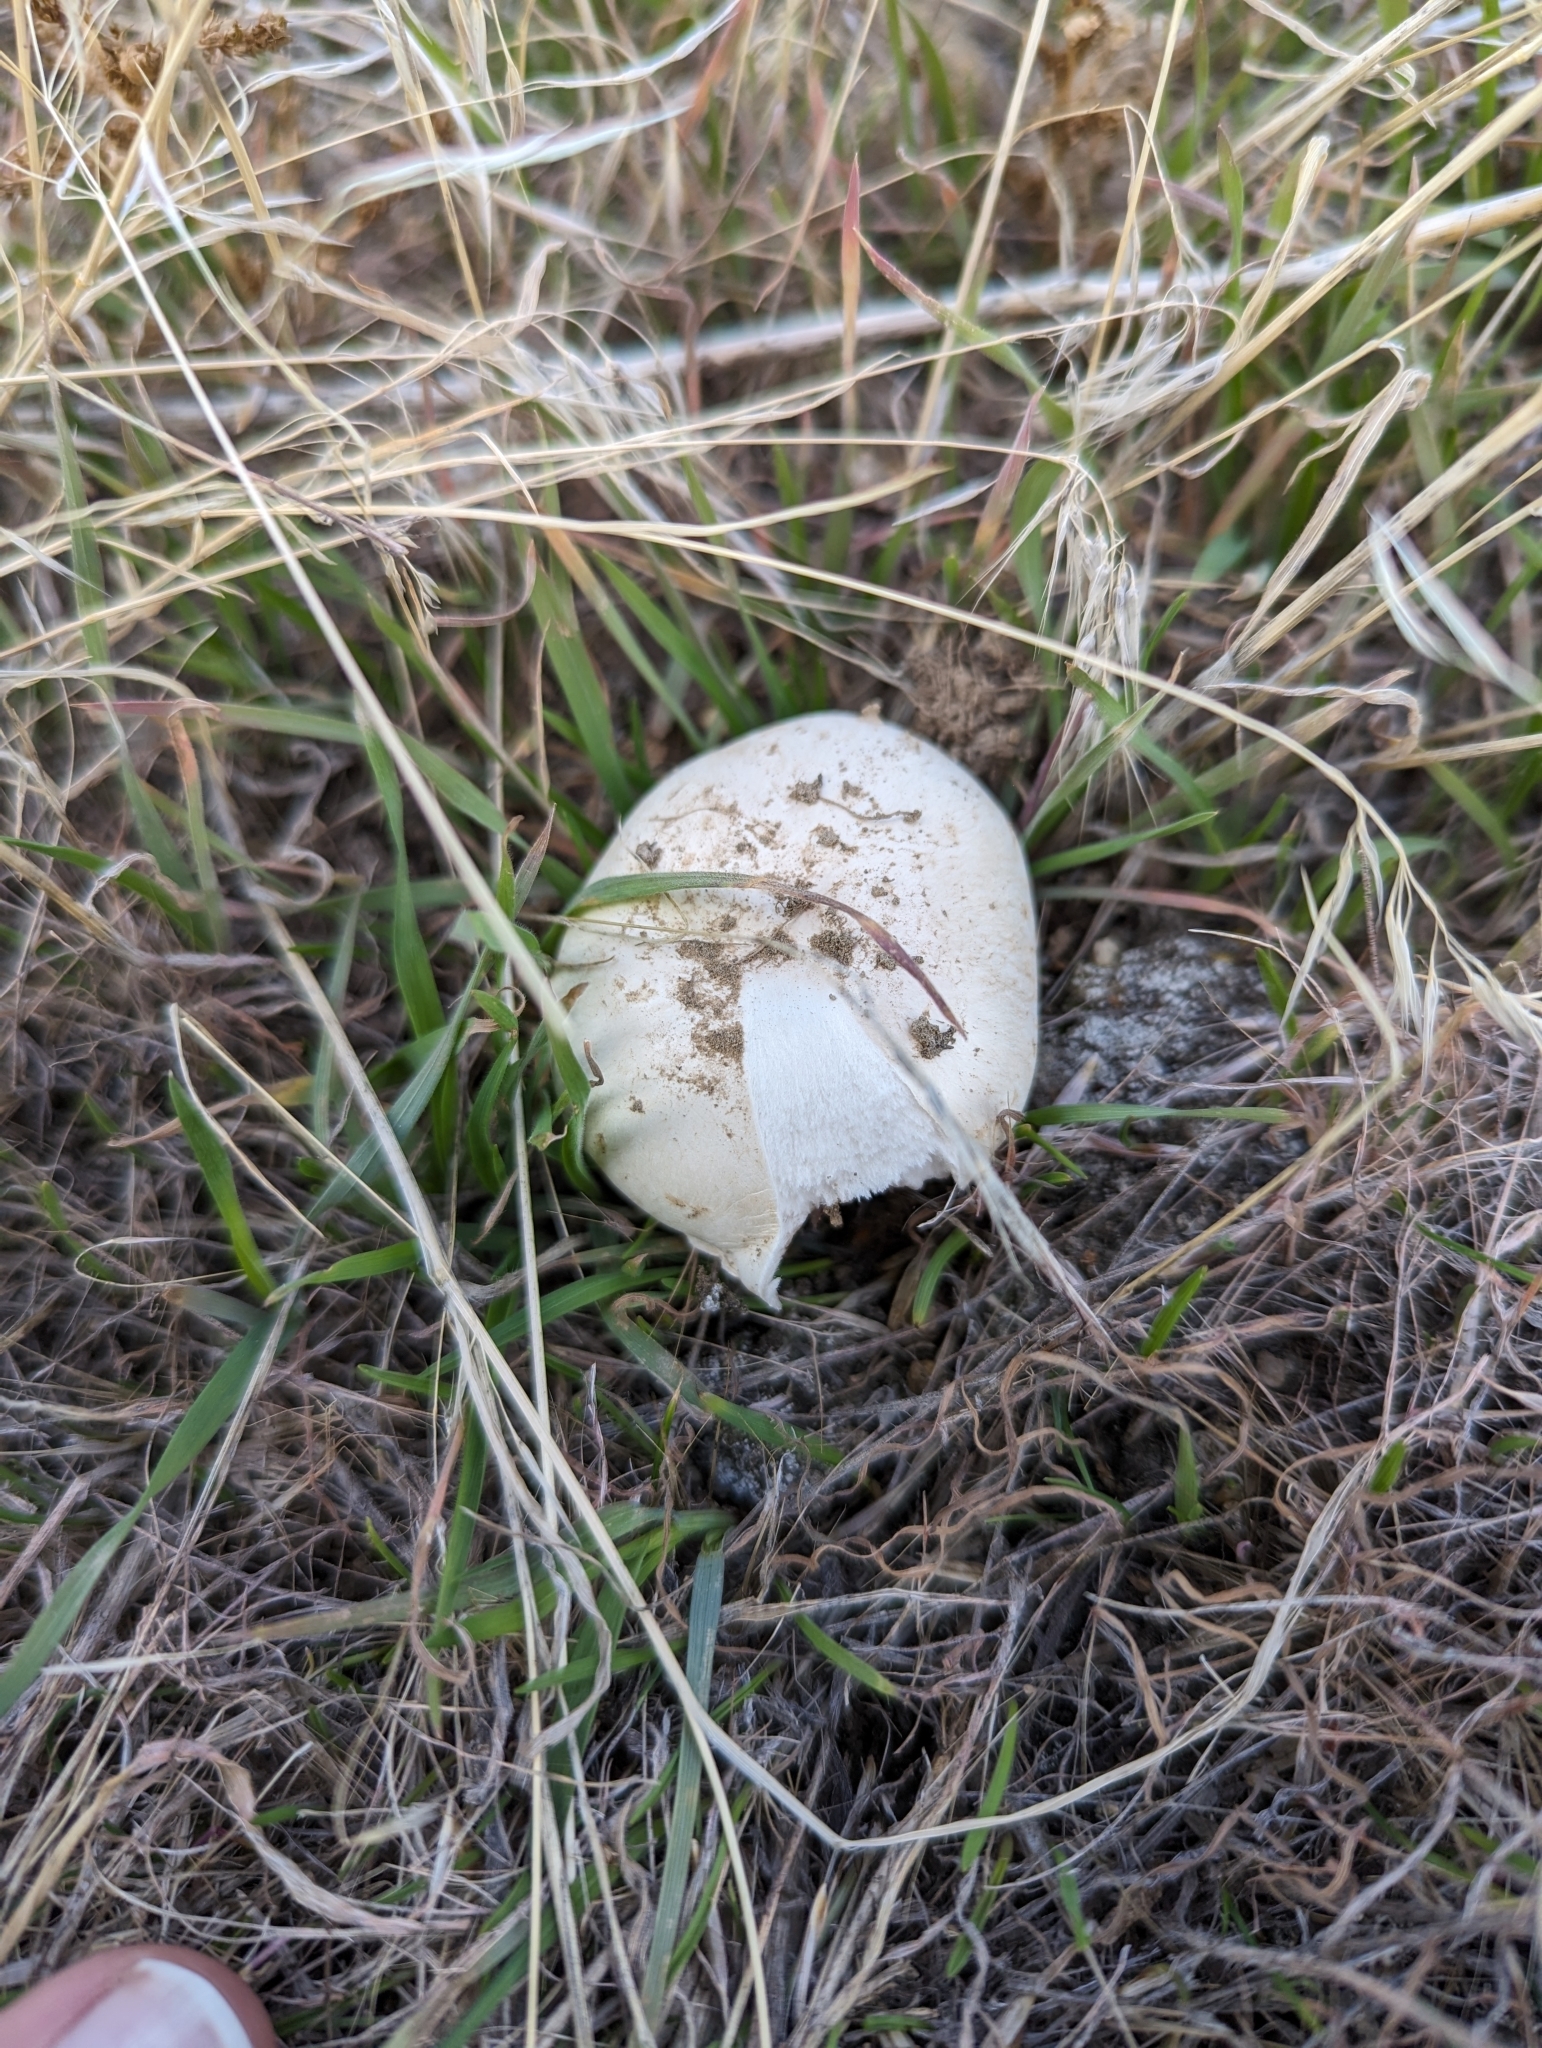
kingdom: Fungi
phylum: Basidiomycota
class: Agaricomycetes
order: Agaricales
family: Agaricaceae
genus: Agaricus
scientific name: Agaricus campestris
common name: Field mushroom
